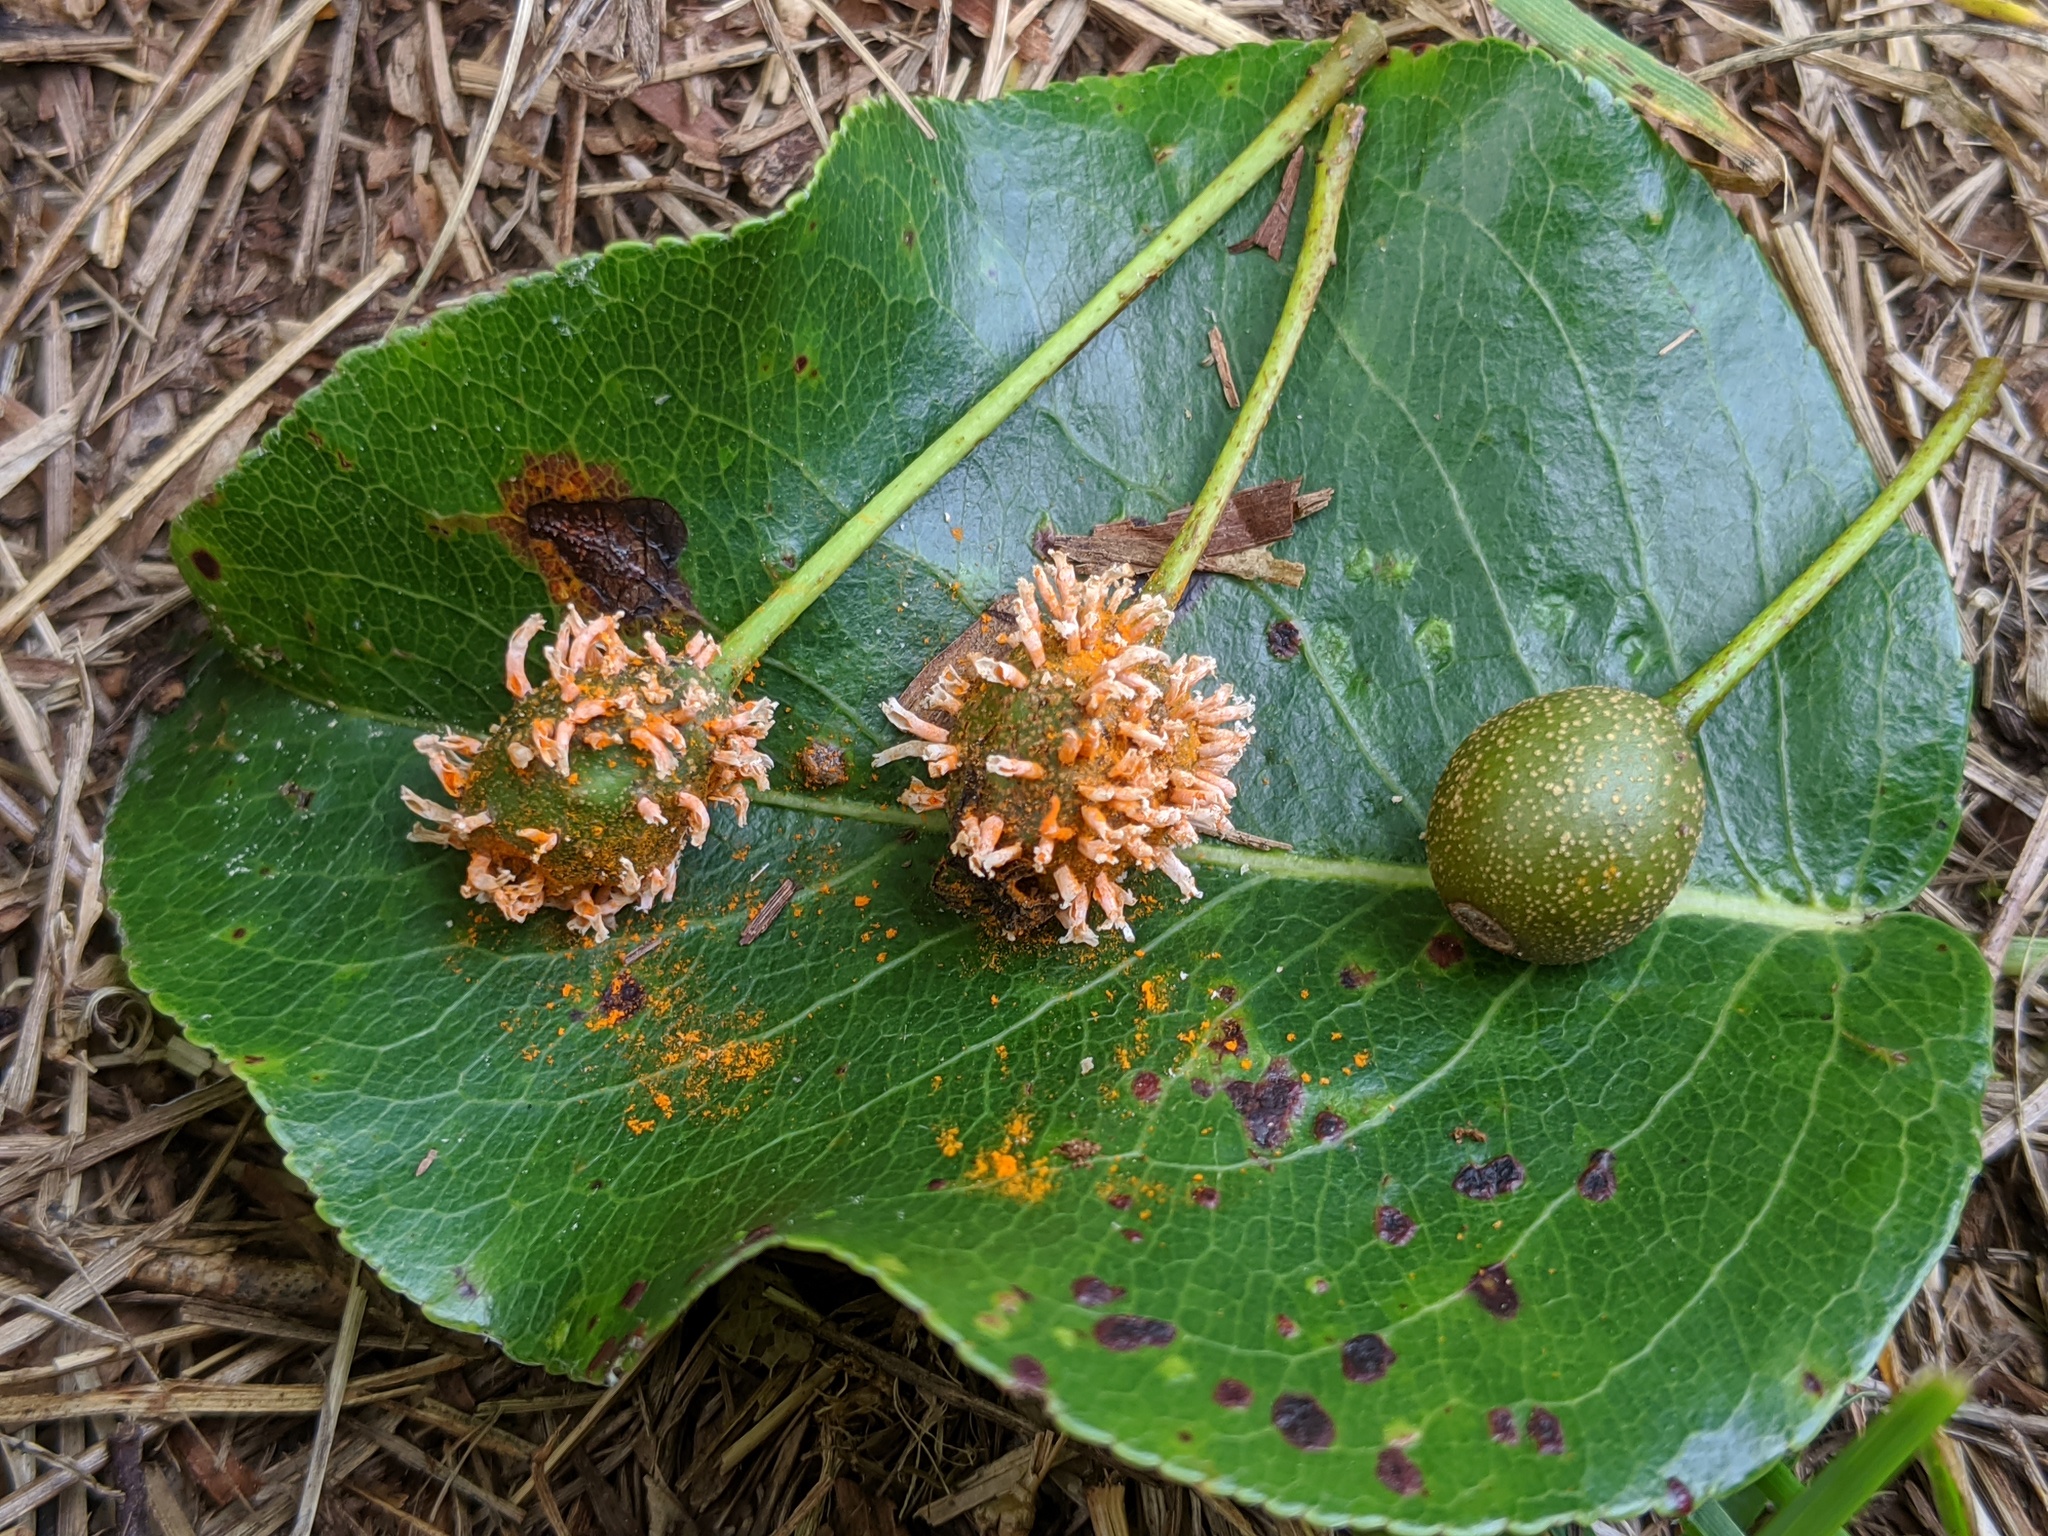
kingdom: Fungi
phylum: Basidiomycota
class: Pucciniomycetes
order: Pucciniales
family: Gymnosporangiaceae
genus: Gymnosporangium
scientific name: Gymnosporangium clavipes
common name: Quince rust
